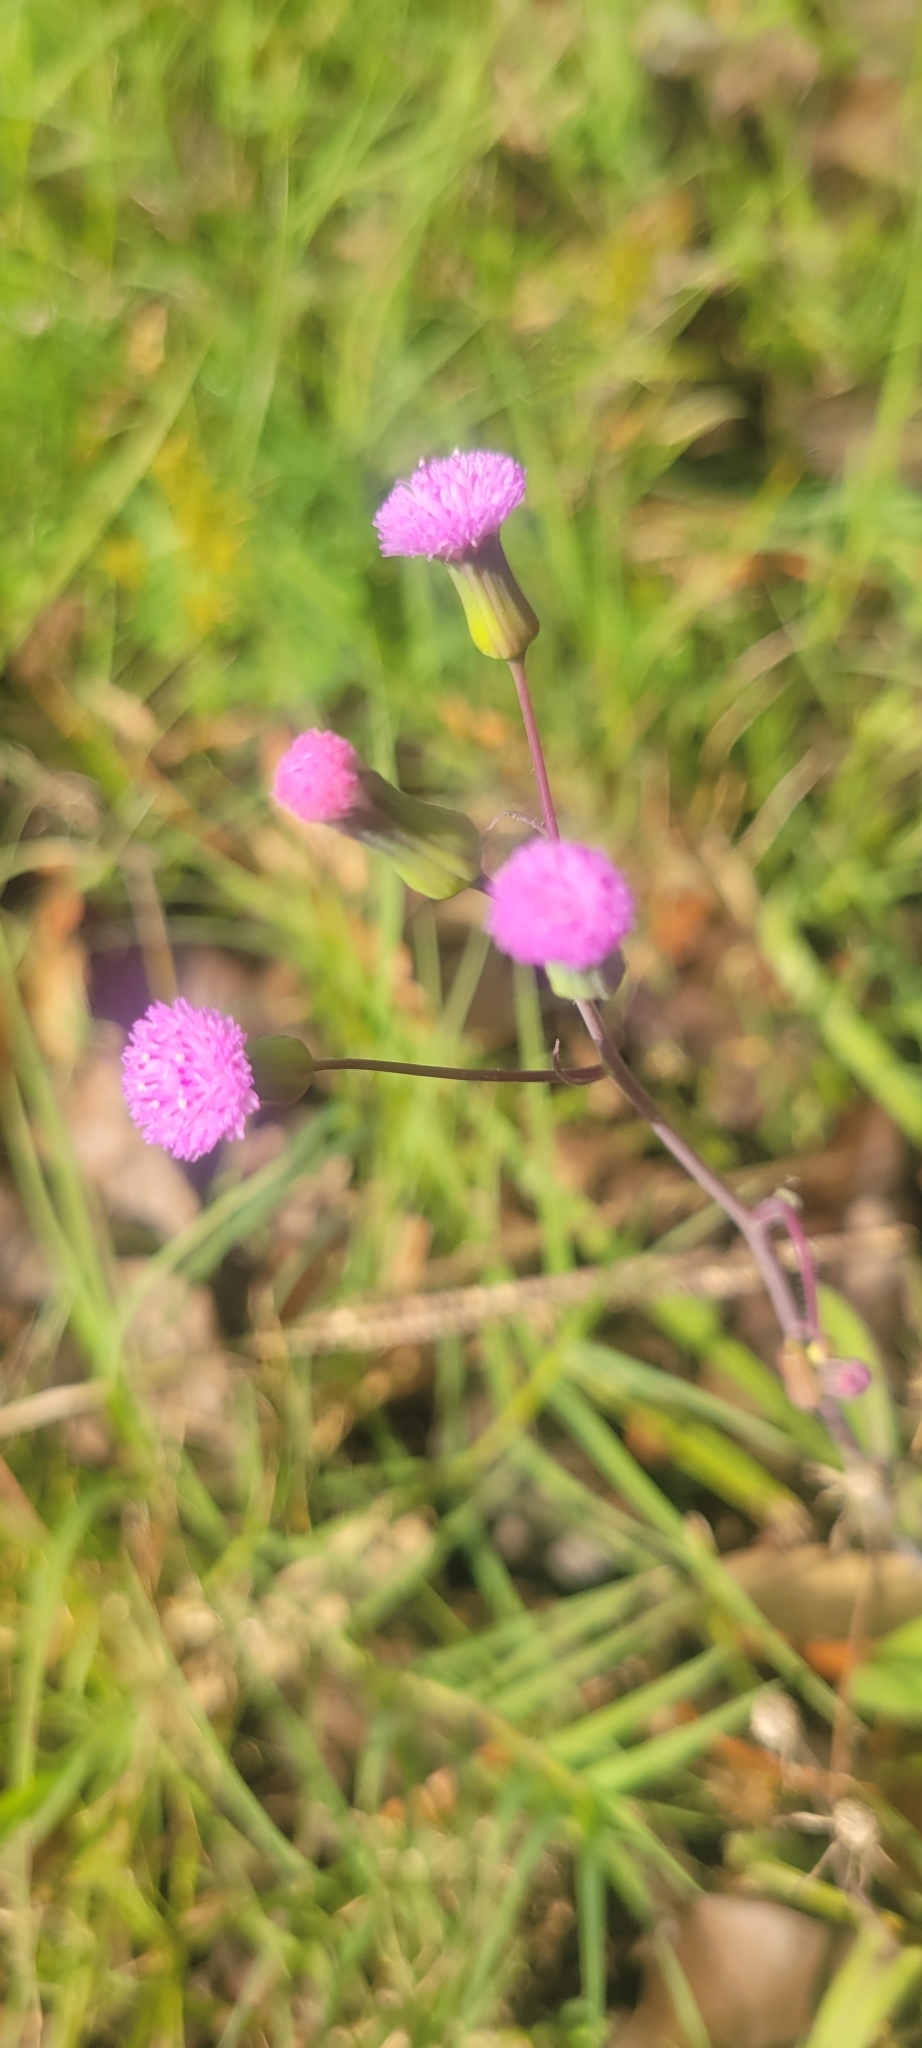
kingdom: Plantae
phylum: Tracheophyta
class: Magnoliopsida
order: Asterales
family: Asteraceae
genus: Emilia
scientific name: Emilia sonchifolia
